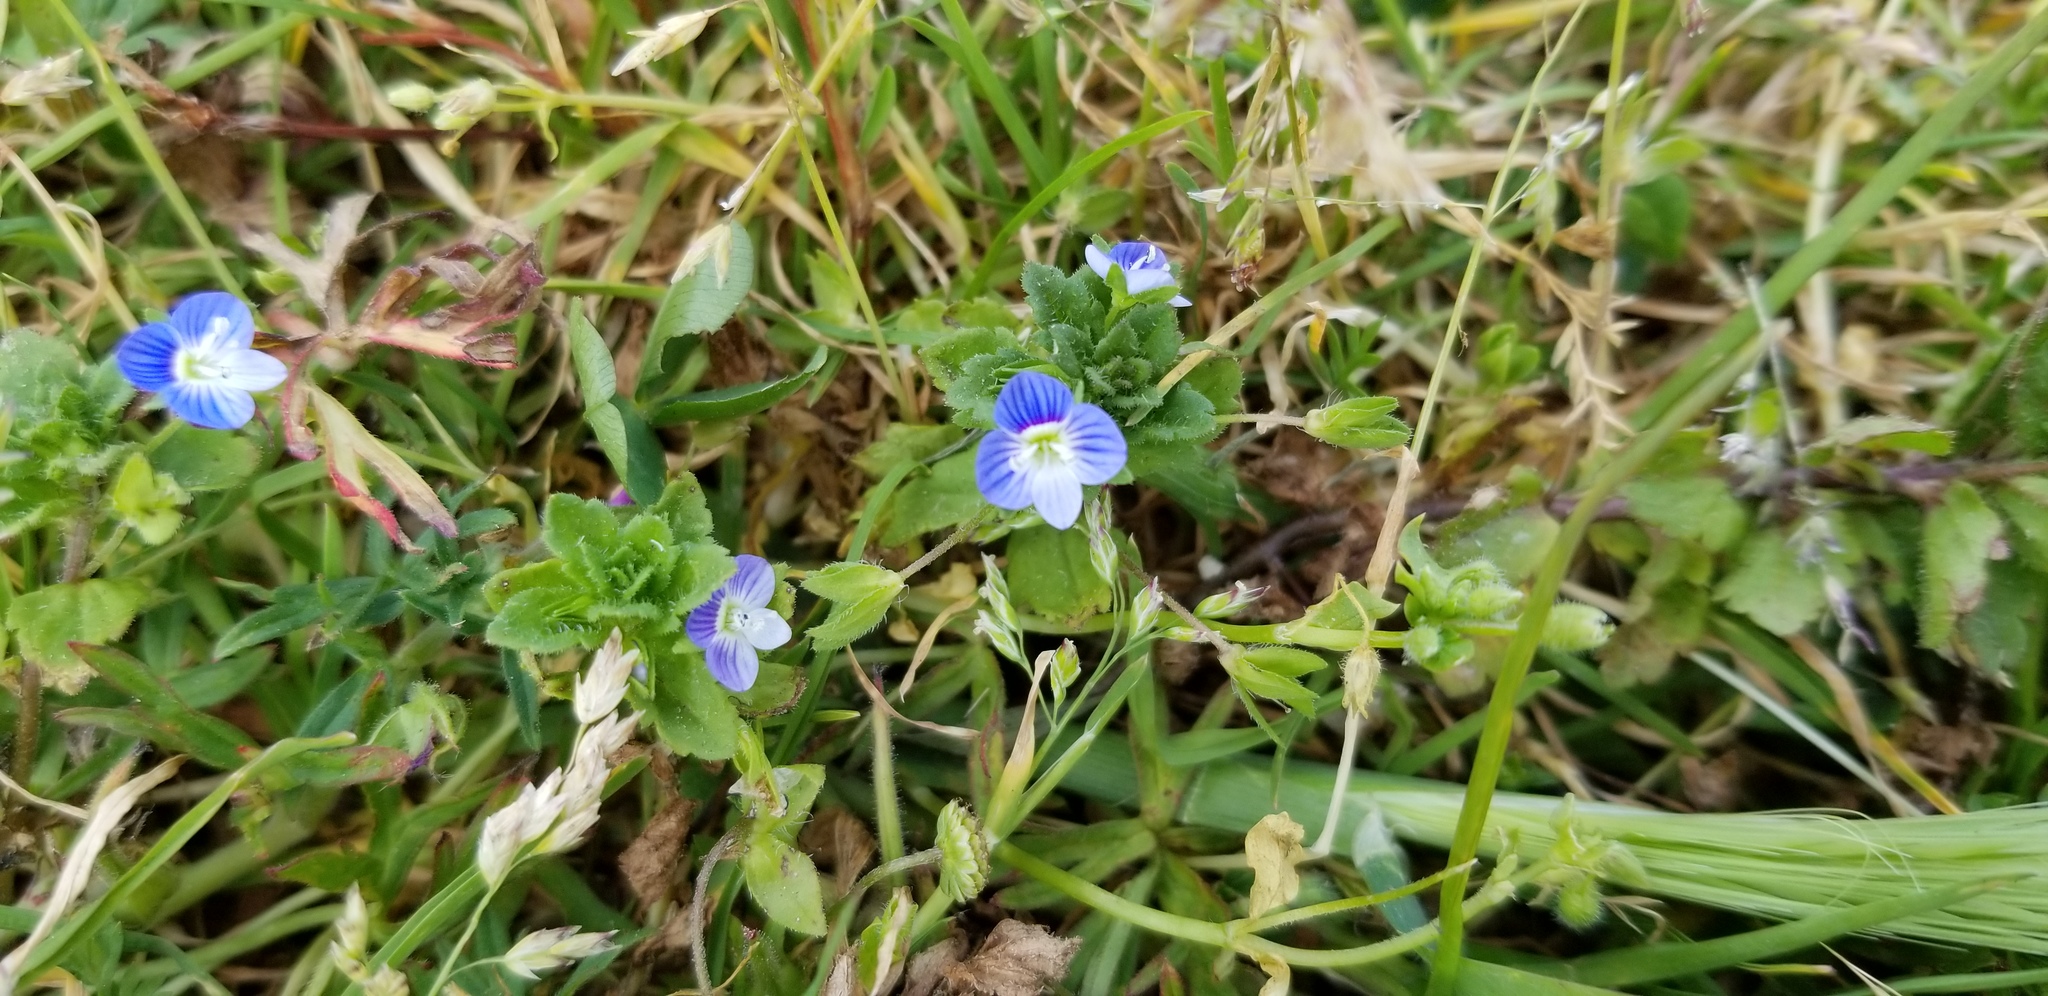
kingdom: Plantae
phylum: Tracheophyta
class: Magnoliopsida
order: Lamiales
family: Plantaginaceae
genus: Veronica
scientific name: Veronica persica
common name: Common field-speedwell
